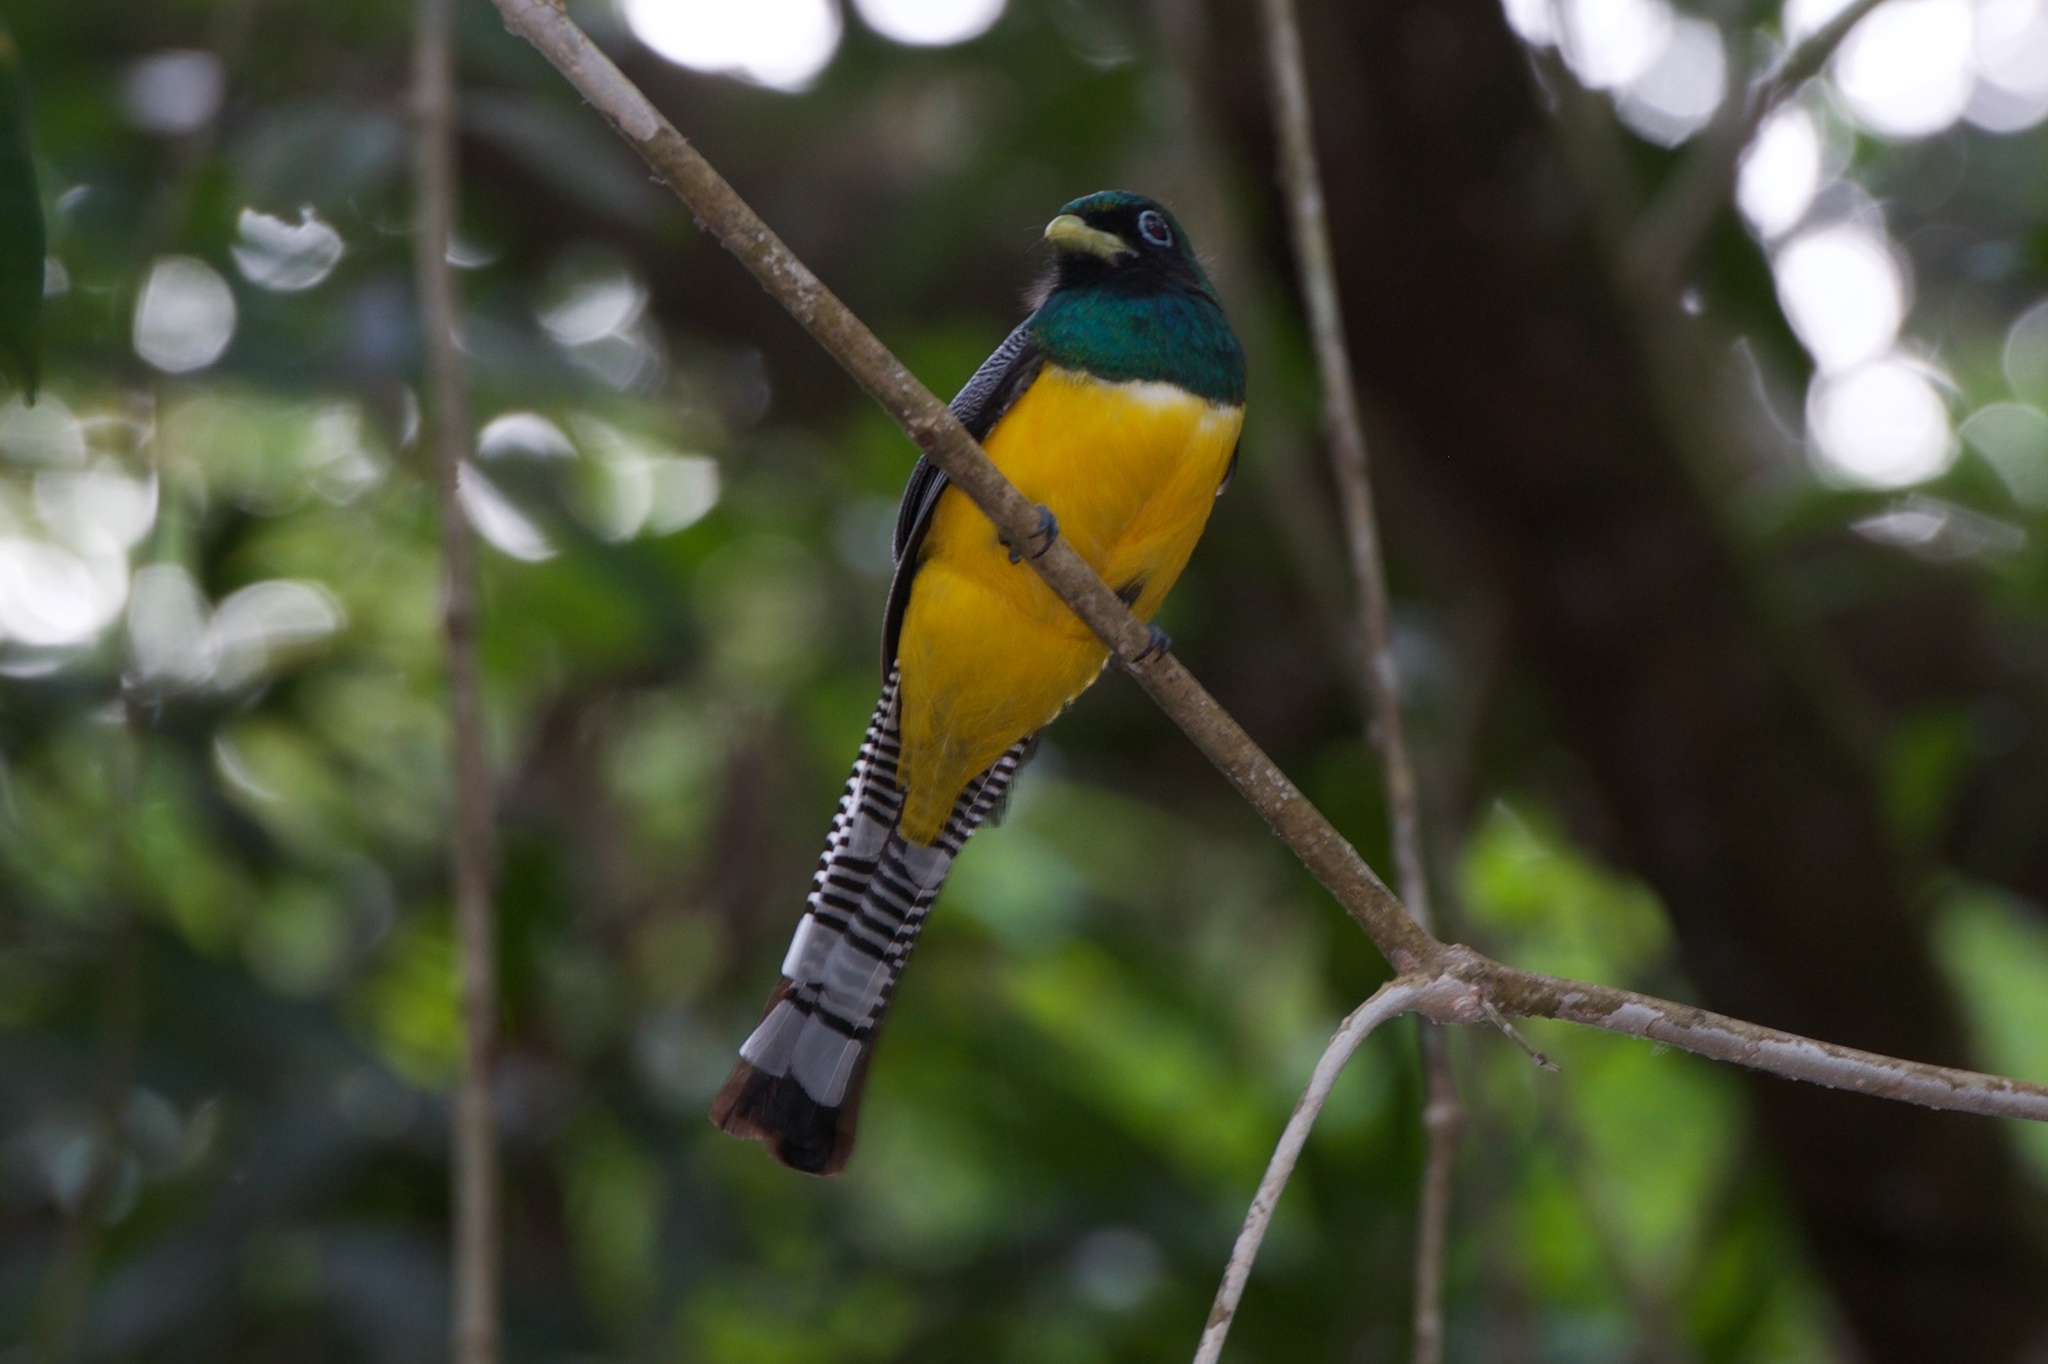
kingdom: Animalia
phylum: Chordata
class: Aves
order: Trogoniformes
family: Trogonidae
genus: Trogon
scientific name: Trogon rufus
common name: Black-throated trogon
